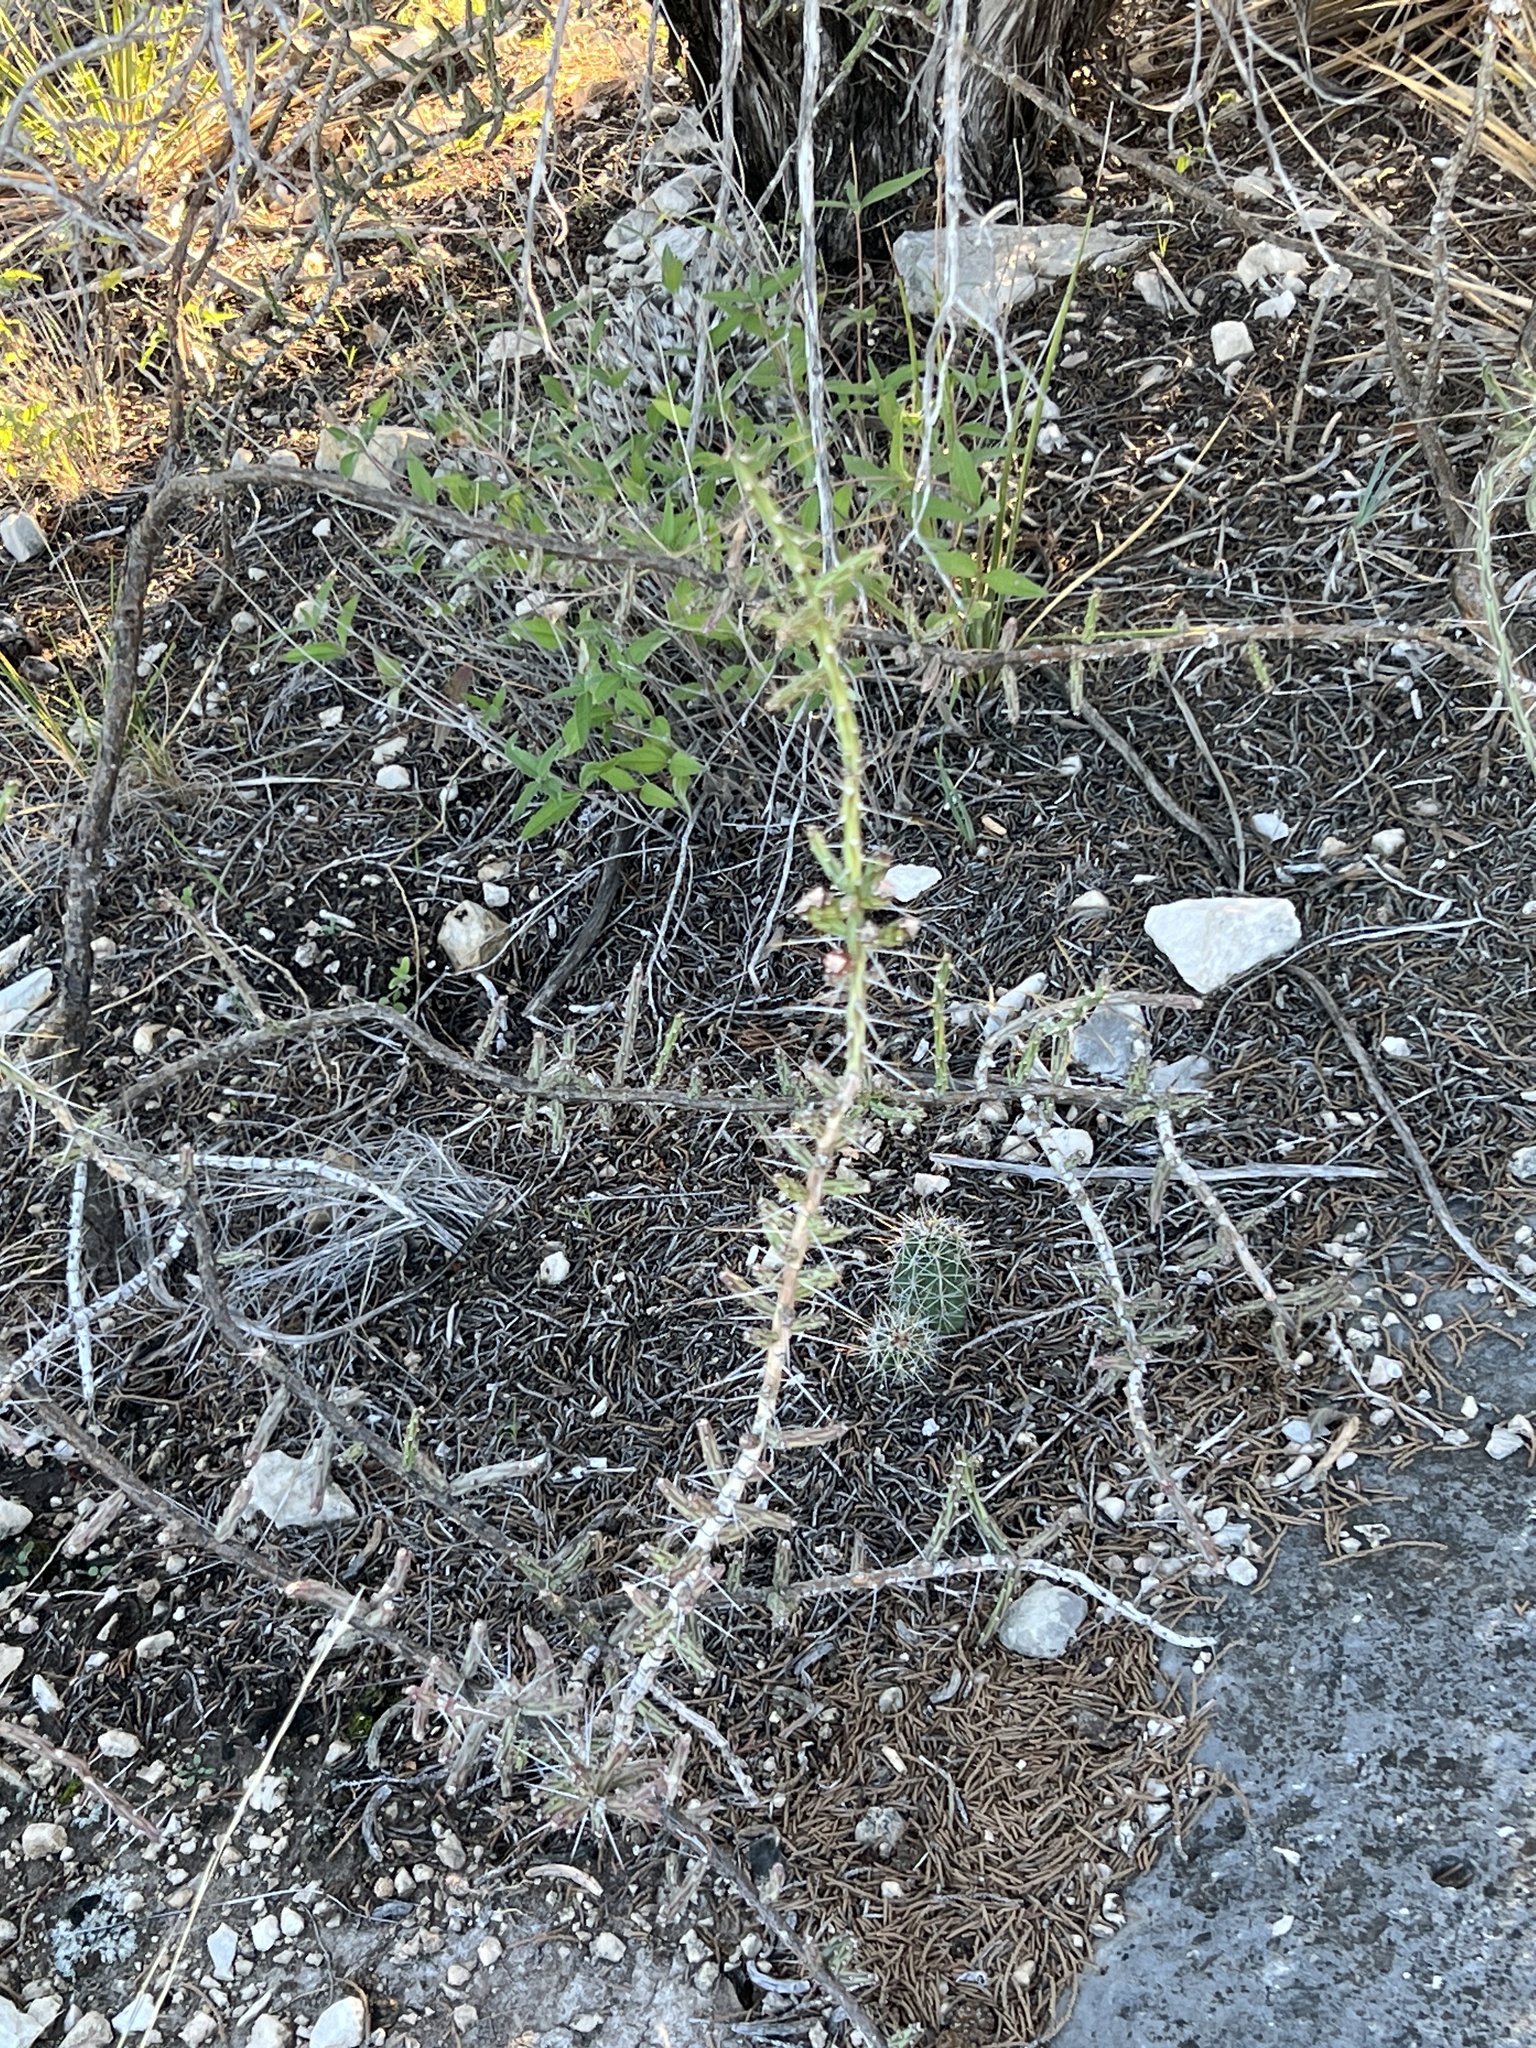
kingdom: Plantae
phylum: Tracheophyta
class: Magnoliopsida
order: Caryophyllales
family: Cactaceae
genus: Cylindropuntia
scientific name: Cylindropuntia leptocaulis
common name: Christmas cactus
